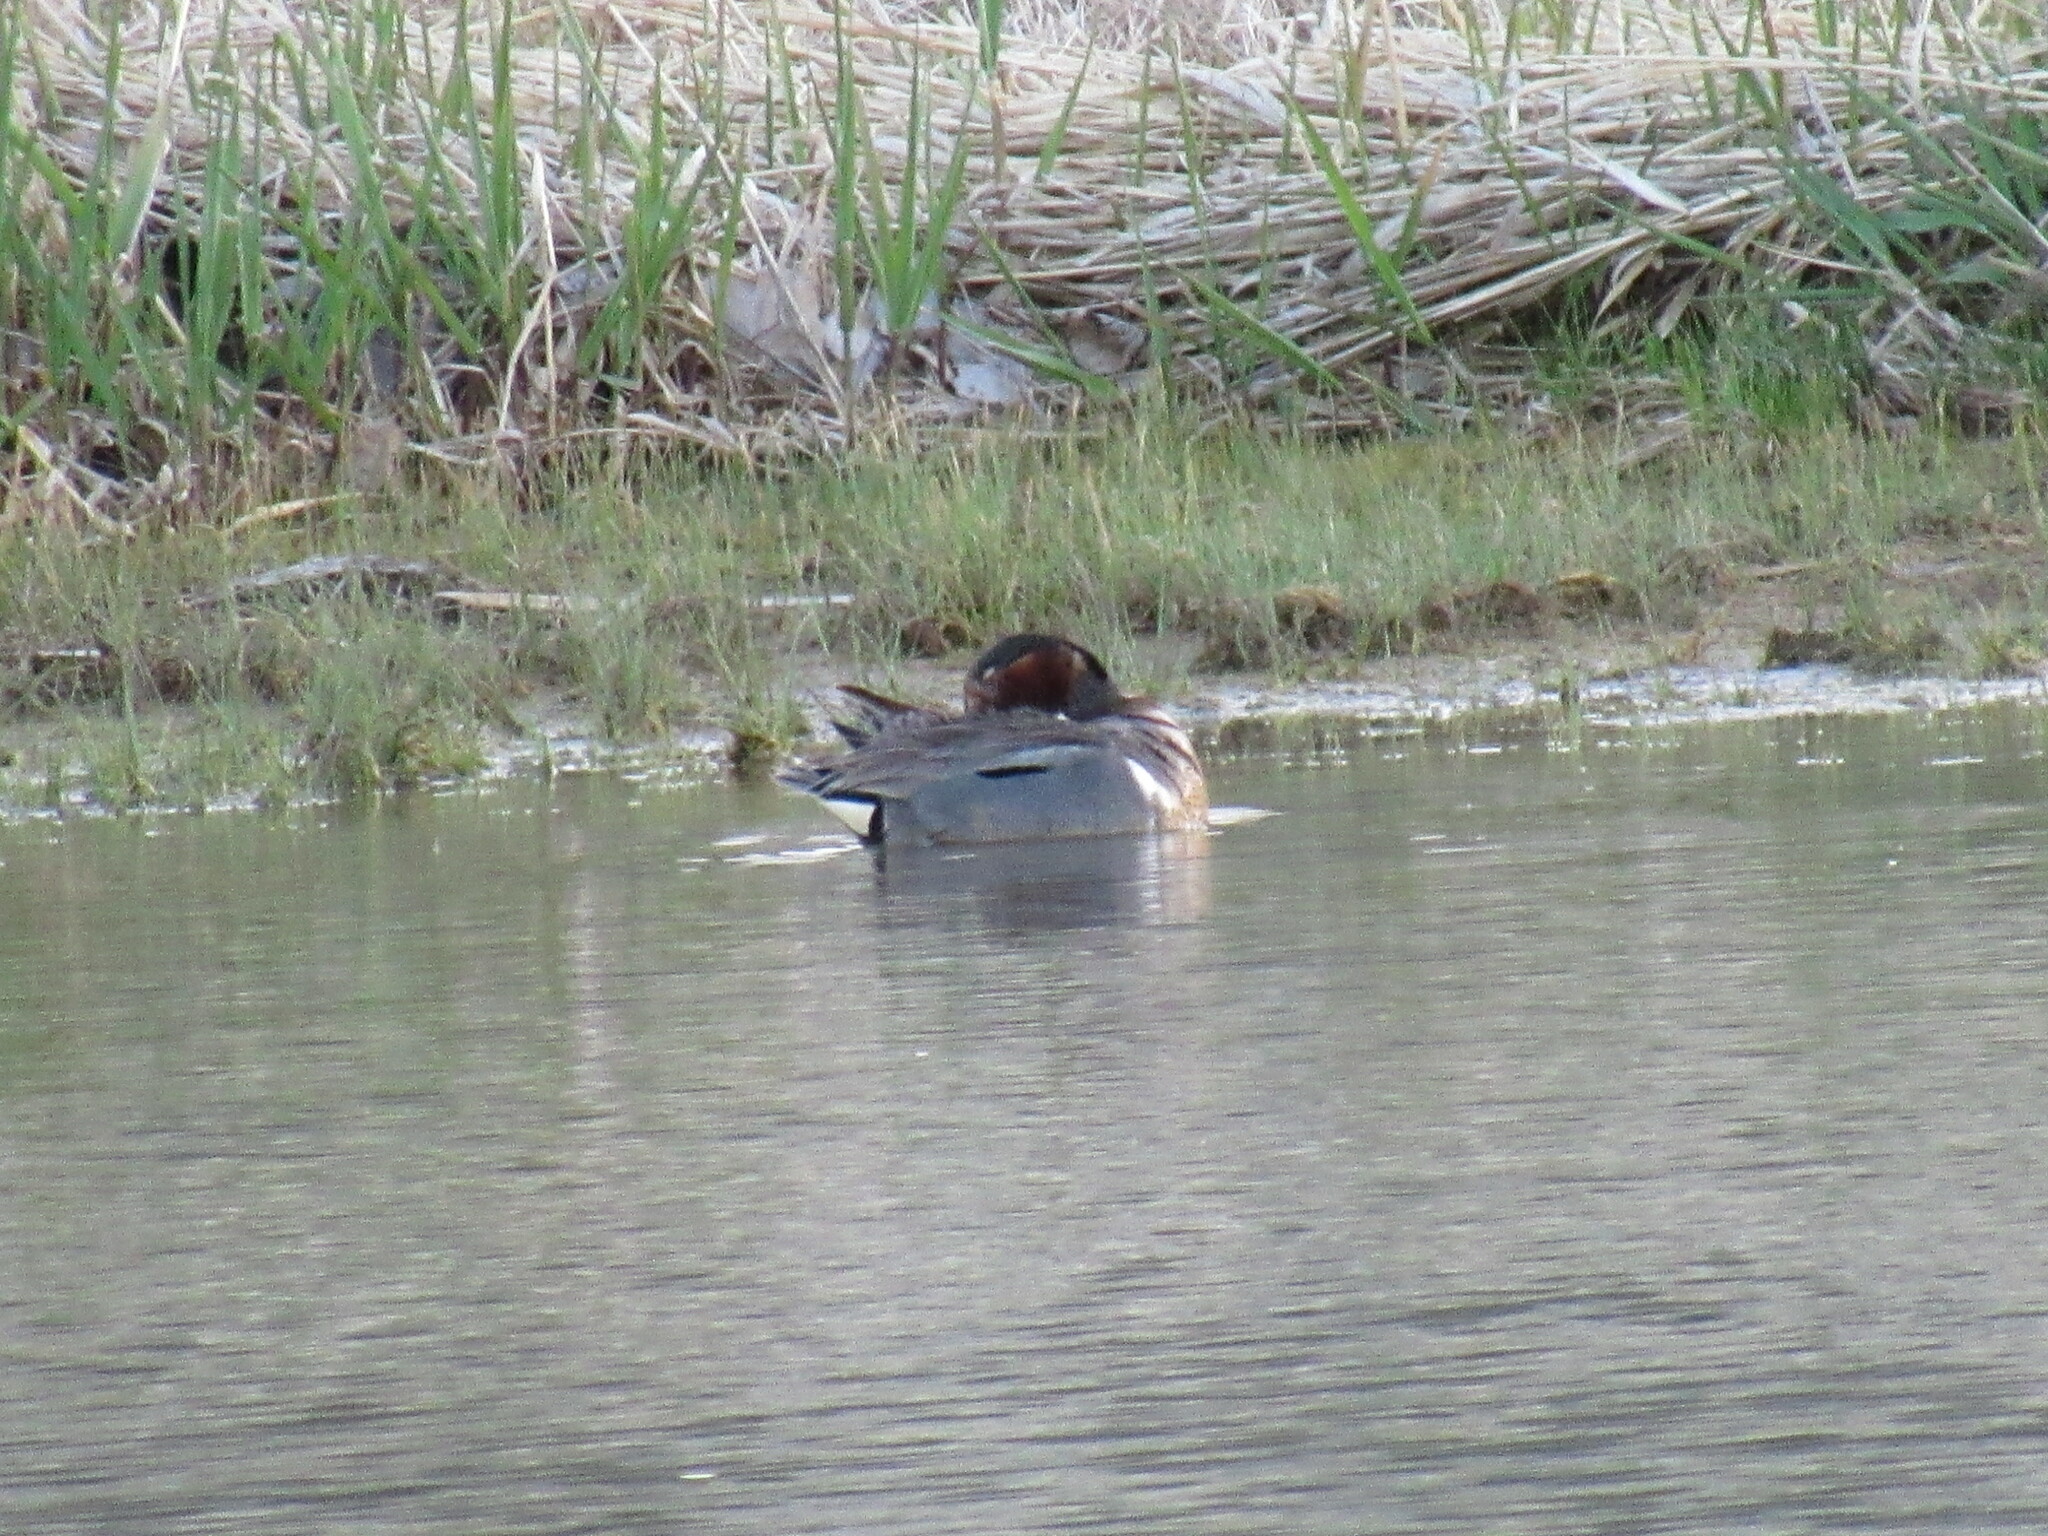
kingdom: Animalia
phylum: Chordata
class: Aves
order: Anseriformes
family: Anatidae
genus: Anas
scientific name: Anas crecca
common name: Eurasian teal
